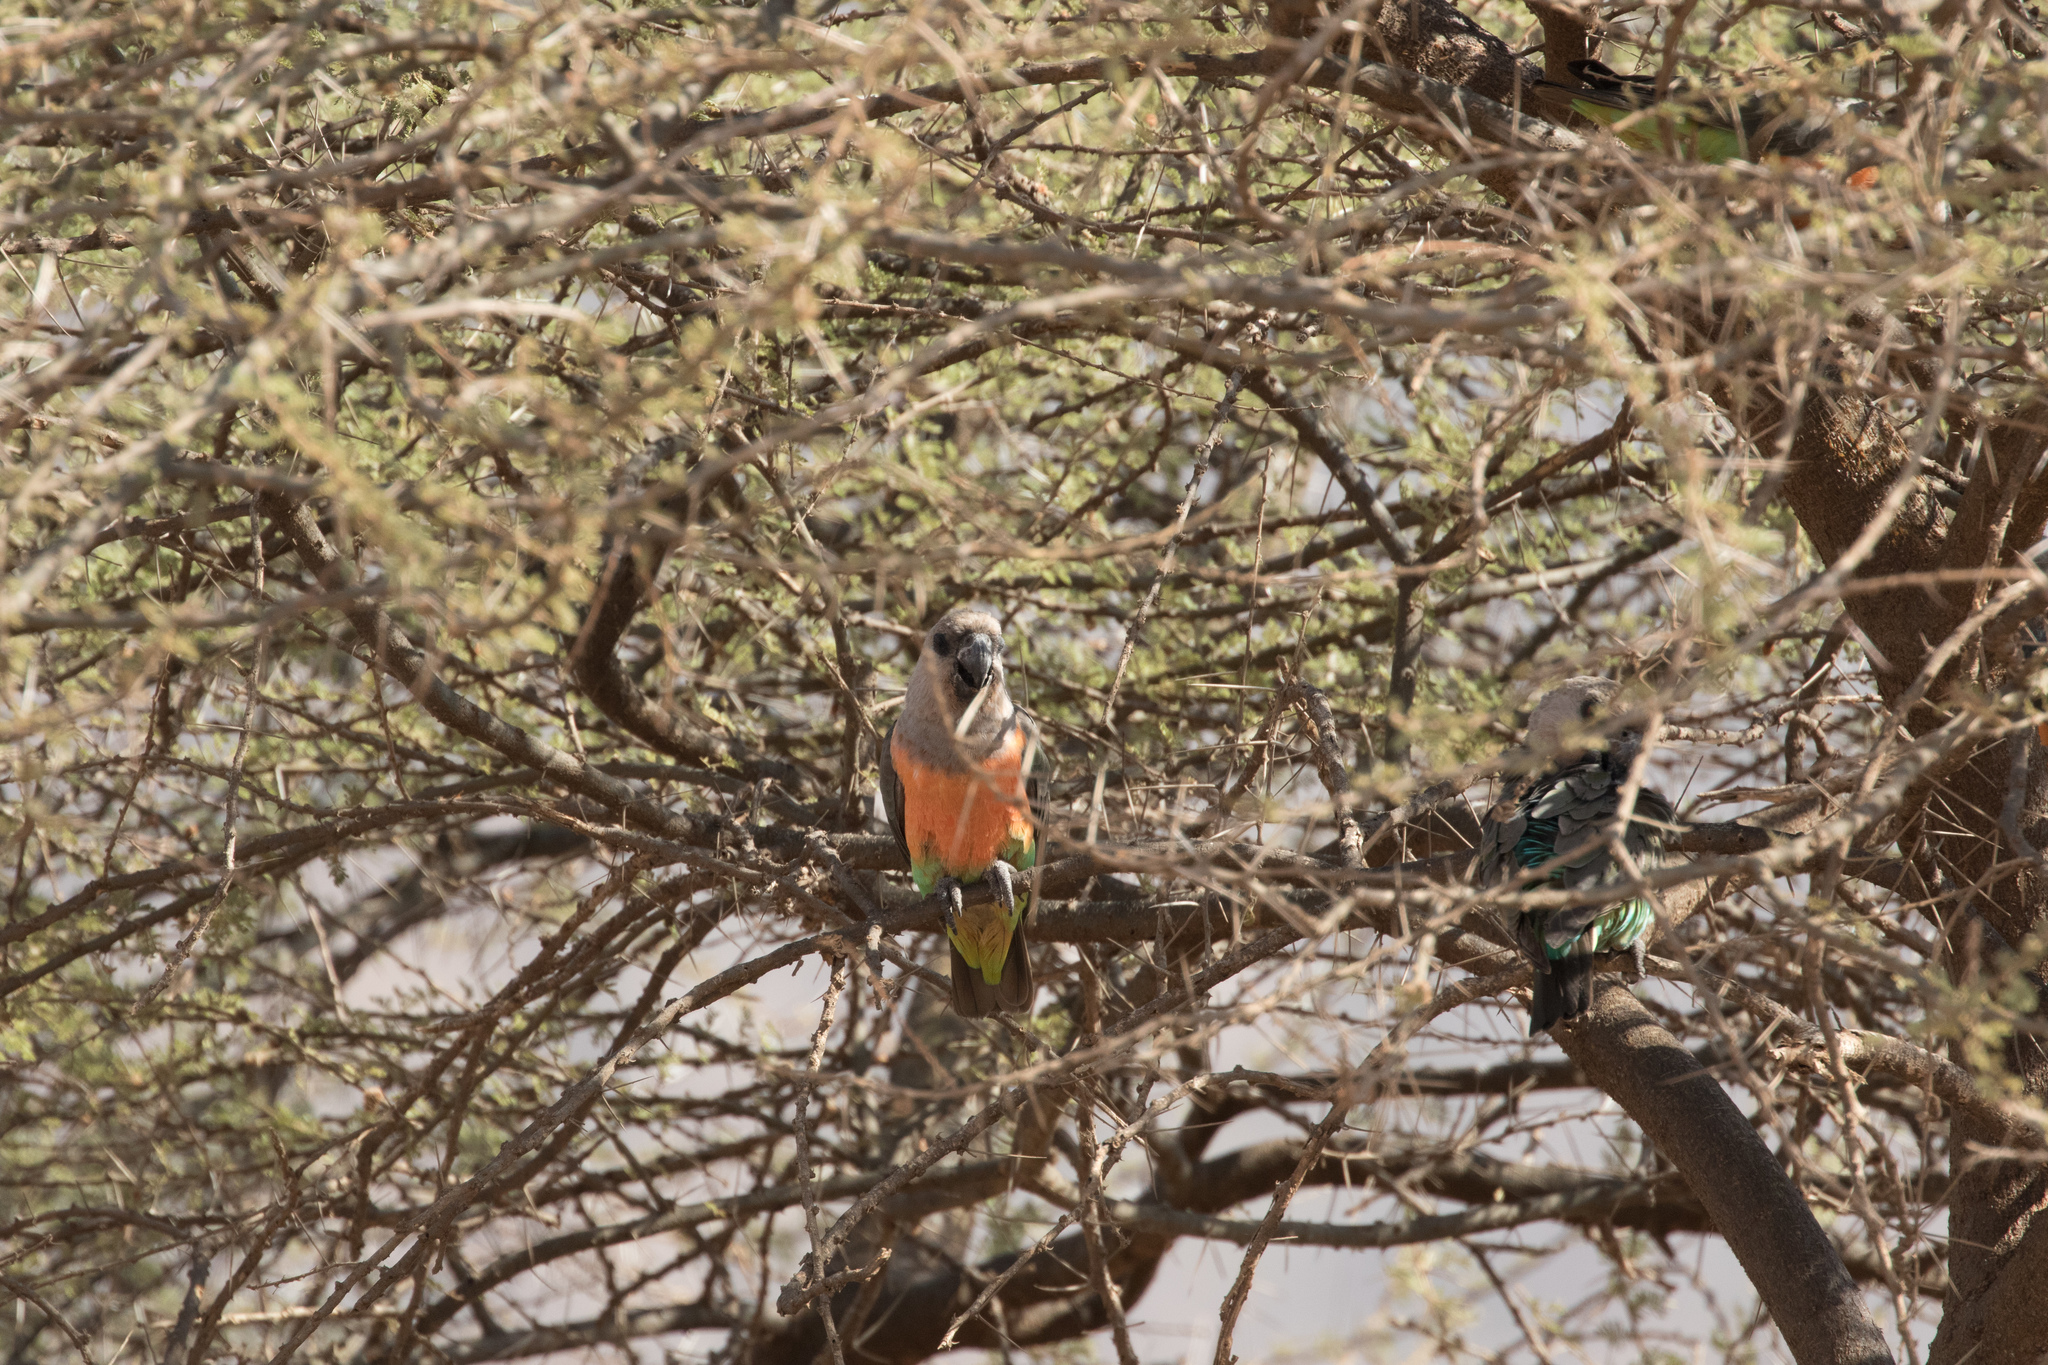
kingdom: Animalia
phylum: Chordata
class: Aves
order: Psittaciformes
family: Psittacidae
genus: Poicephalus
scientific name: Poicephalus rufiventris
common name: Red-bellied parrot
